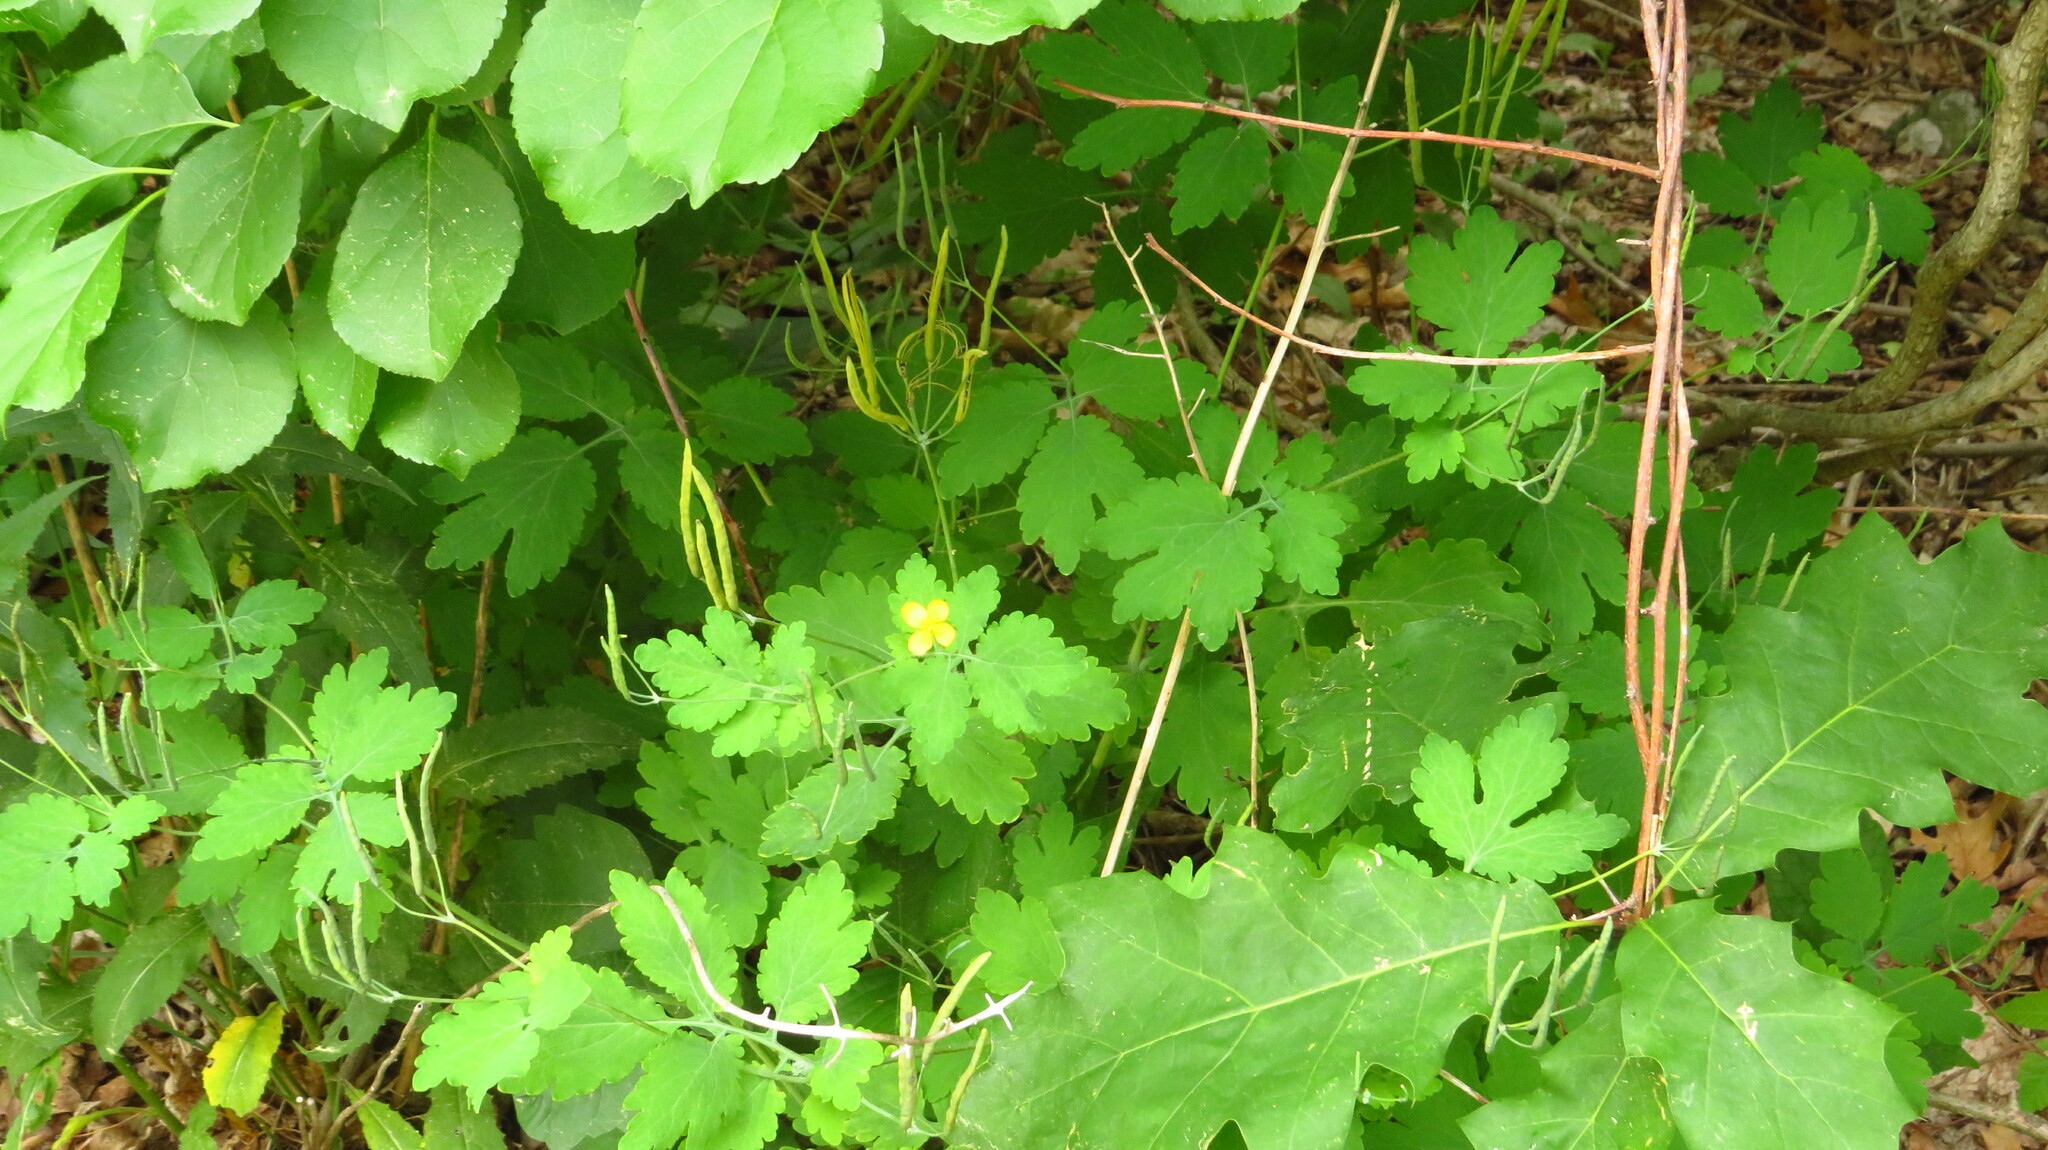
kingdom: Plantae
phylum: Tracheophyta
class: Magnoliopsida
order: Ranunculales
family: Papaveraceae
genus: Chelidonium
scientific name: Chelidonium majus
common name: Greater celandine
